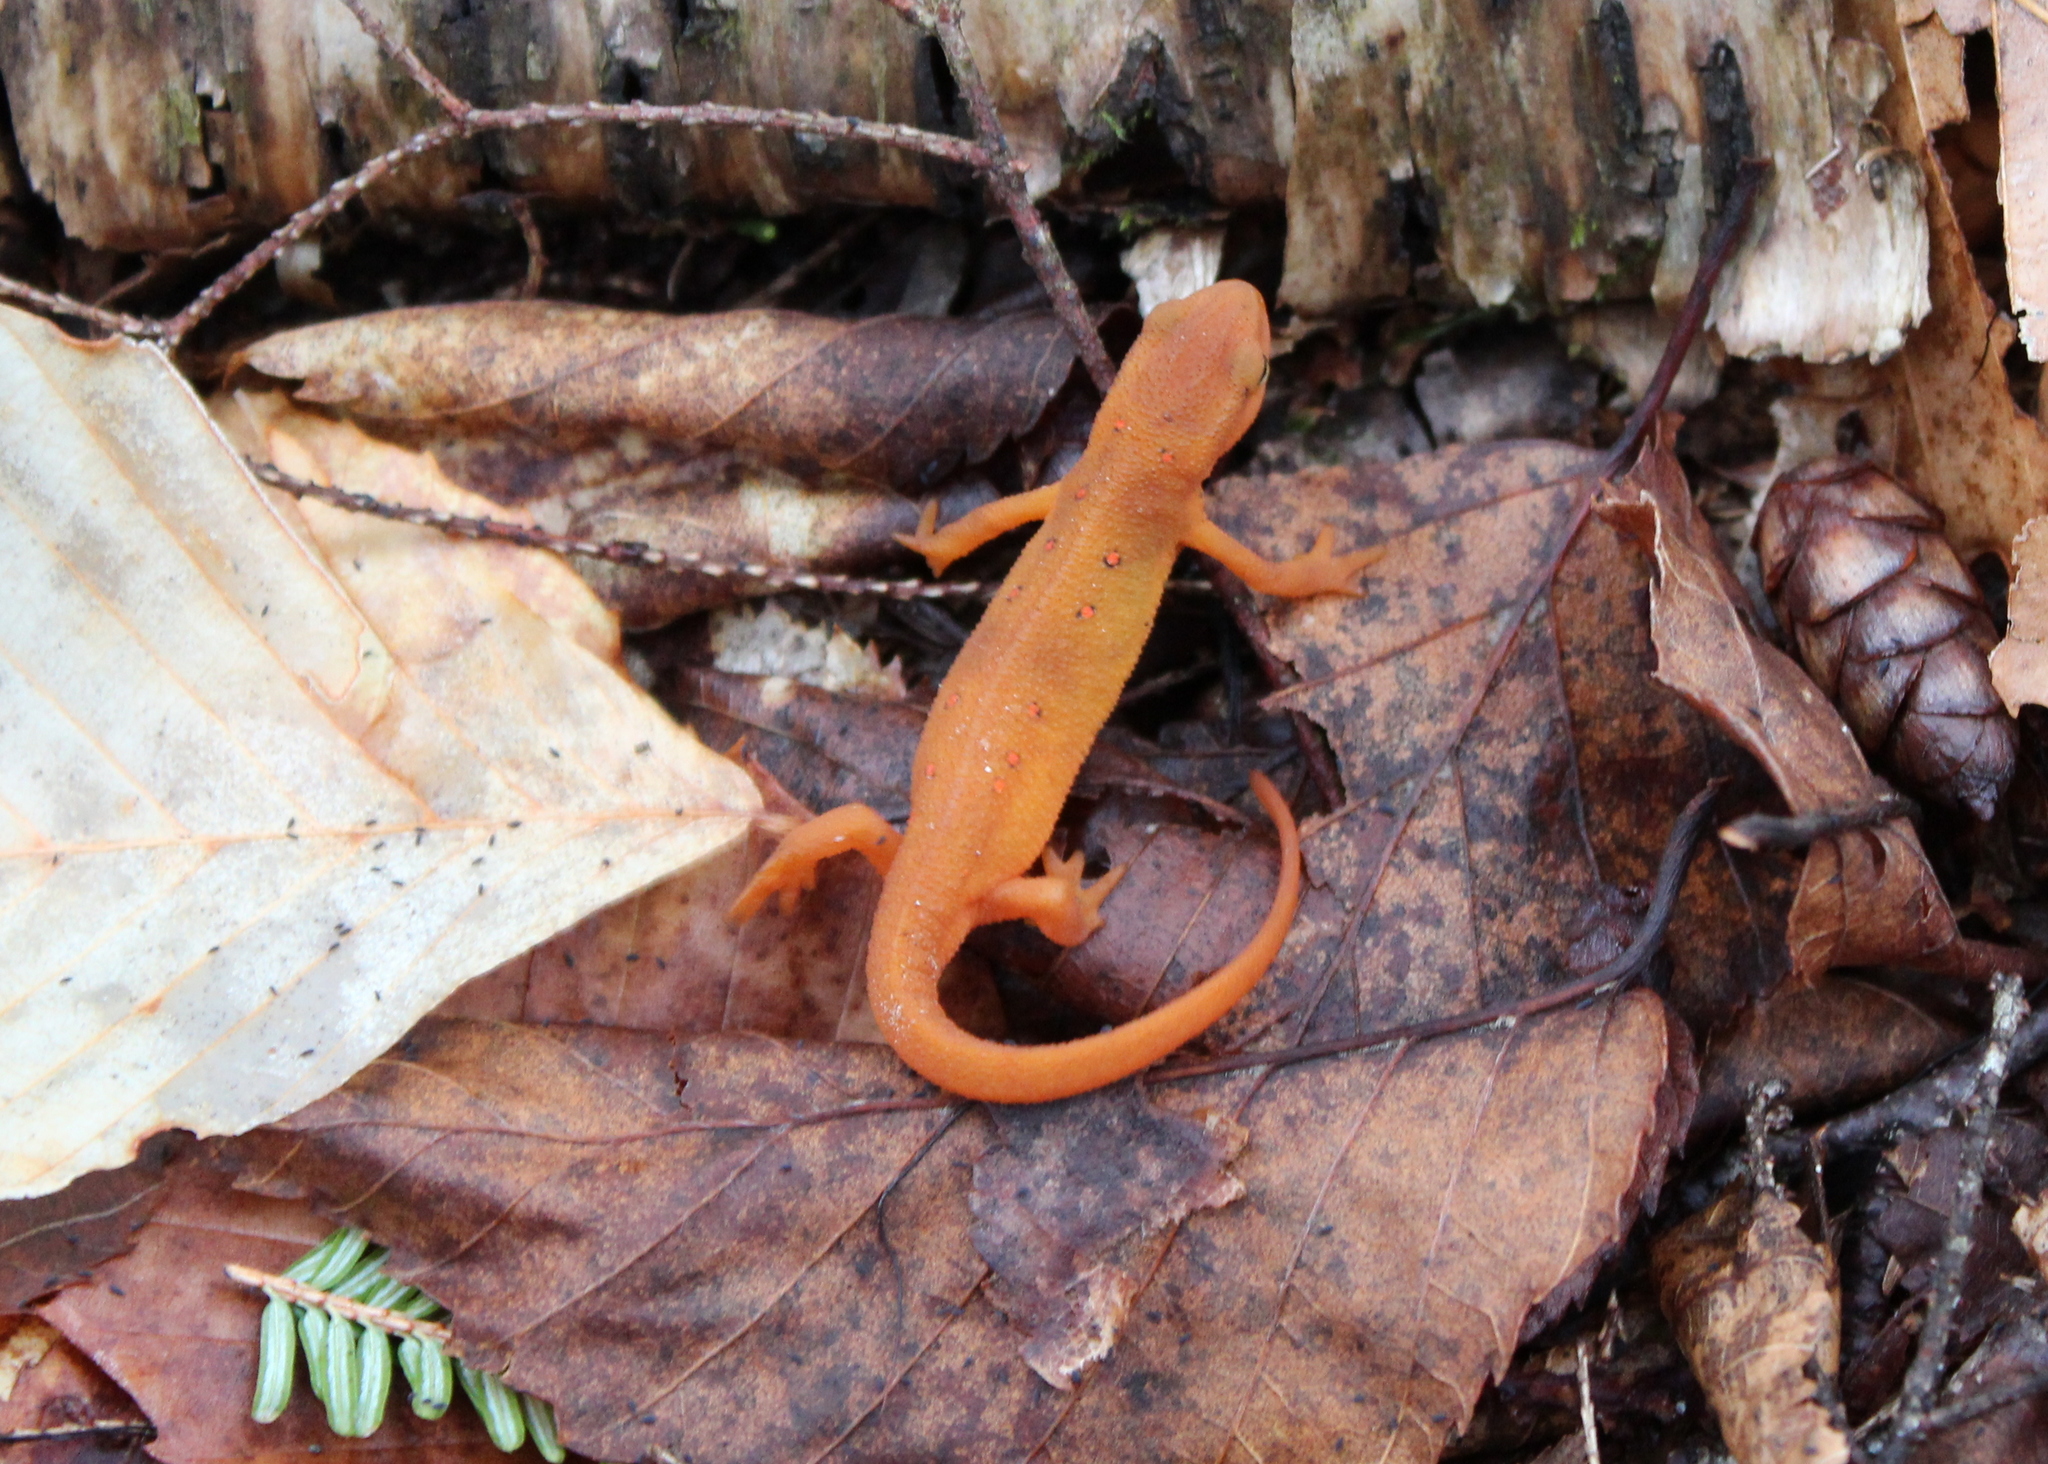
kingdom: Animalia
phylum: Chordata
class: Amphibia
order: Caudata
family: Salamandridae
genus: Notophthalmus
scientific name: Notophthalmus viridescens
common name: Eastern newt
